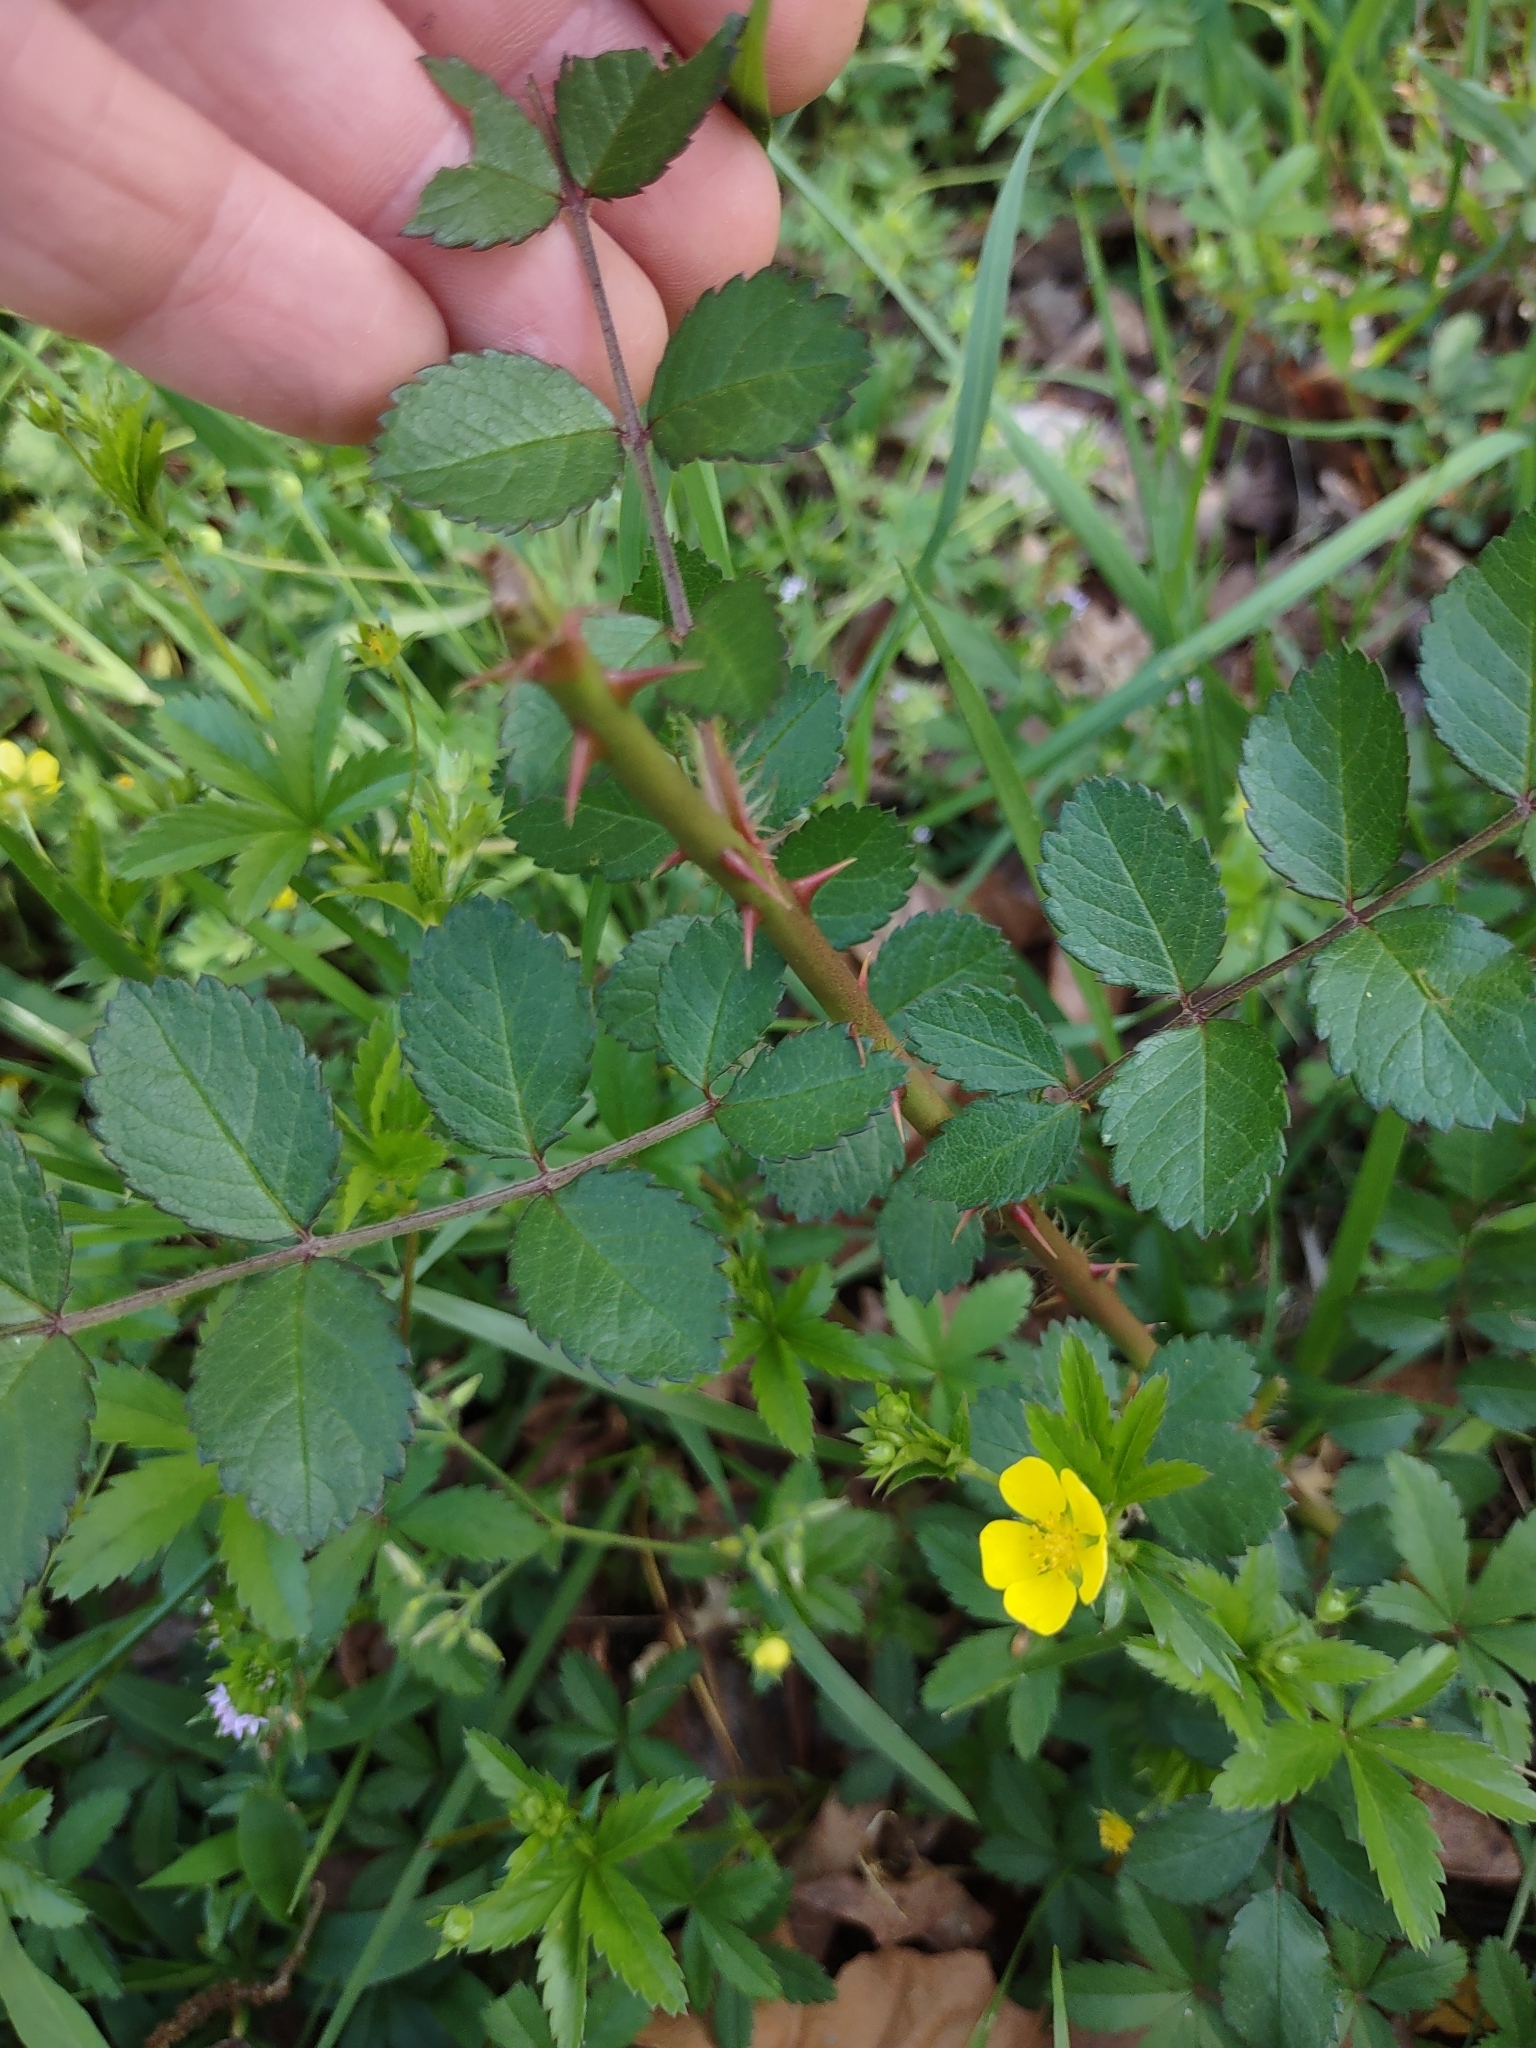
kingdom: Plantae
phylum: Tracheophyta
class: Magnoliopsida
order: Rosales
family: Rosaceae
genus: Rosa
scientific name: Rosa multiflora
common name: Multiflora rose
